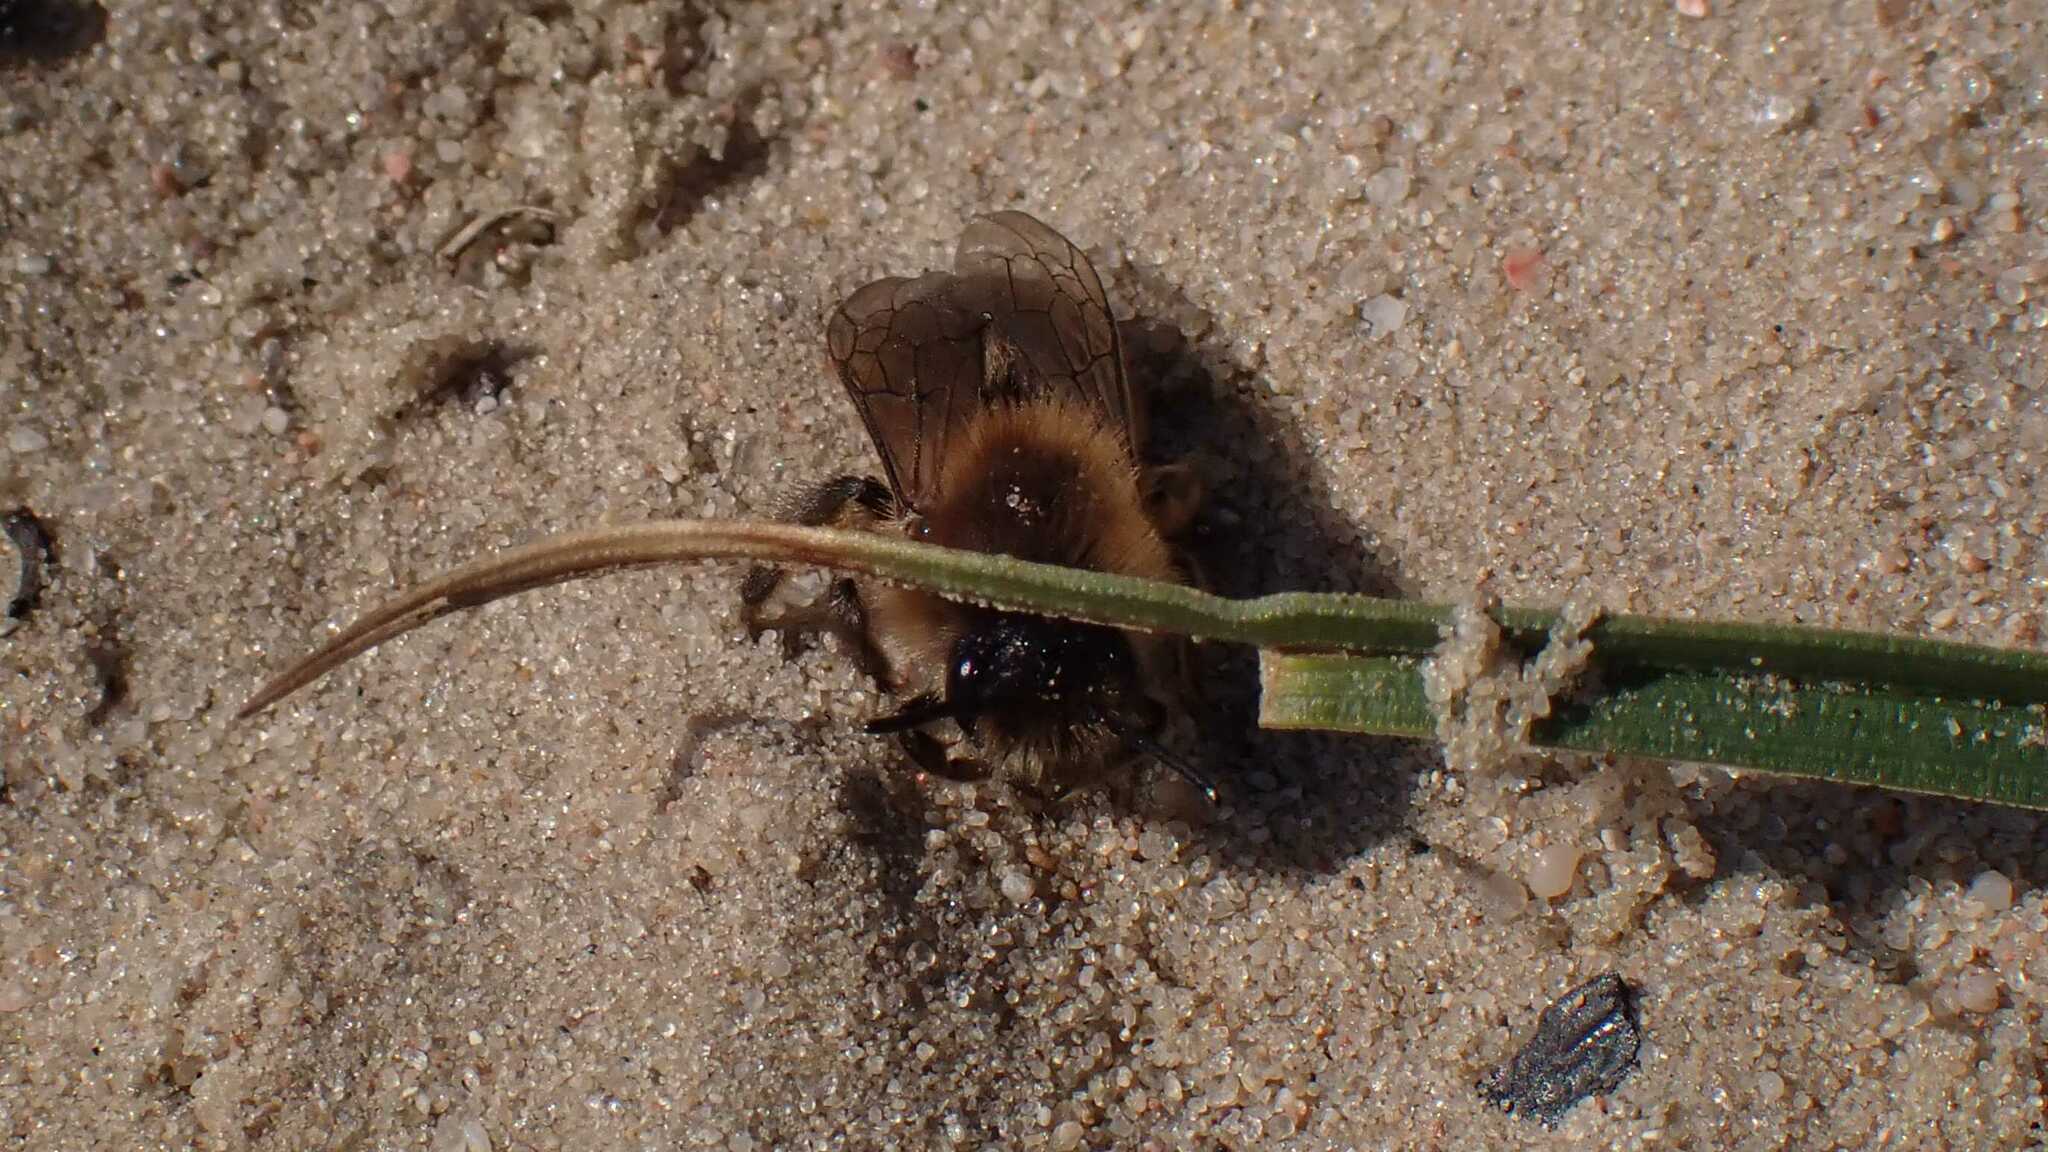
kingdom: Animalia
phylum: Arthropoda
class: Insecta
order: Hymenoptera
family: Colletidae
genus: Colletes
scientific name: Colletes cunicularius
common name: Early colletes
